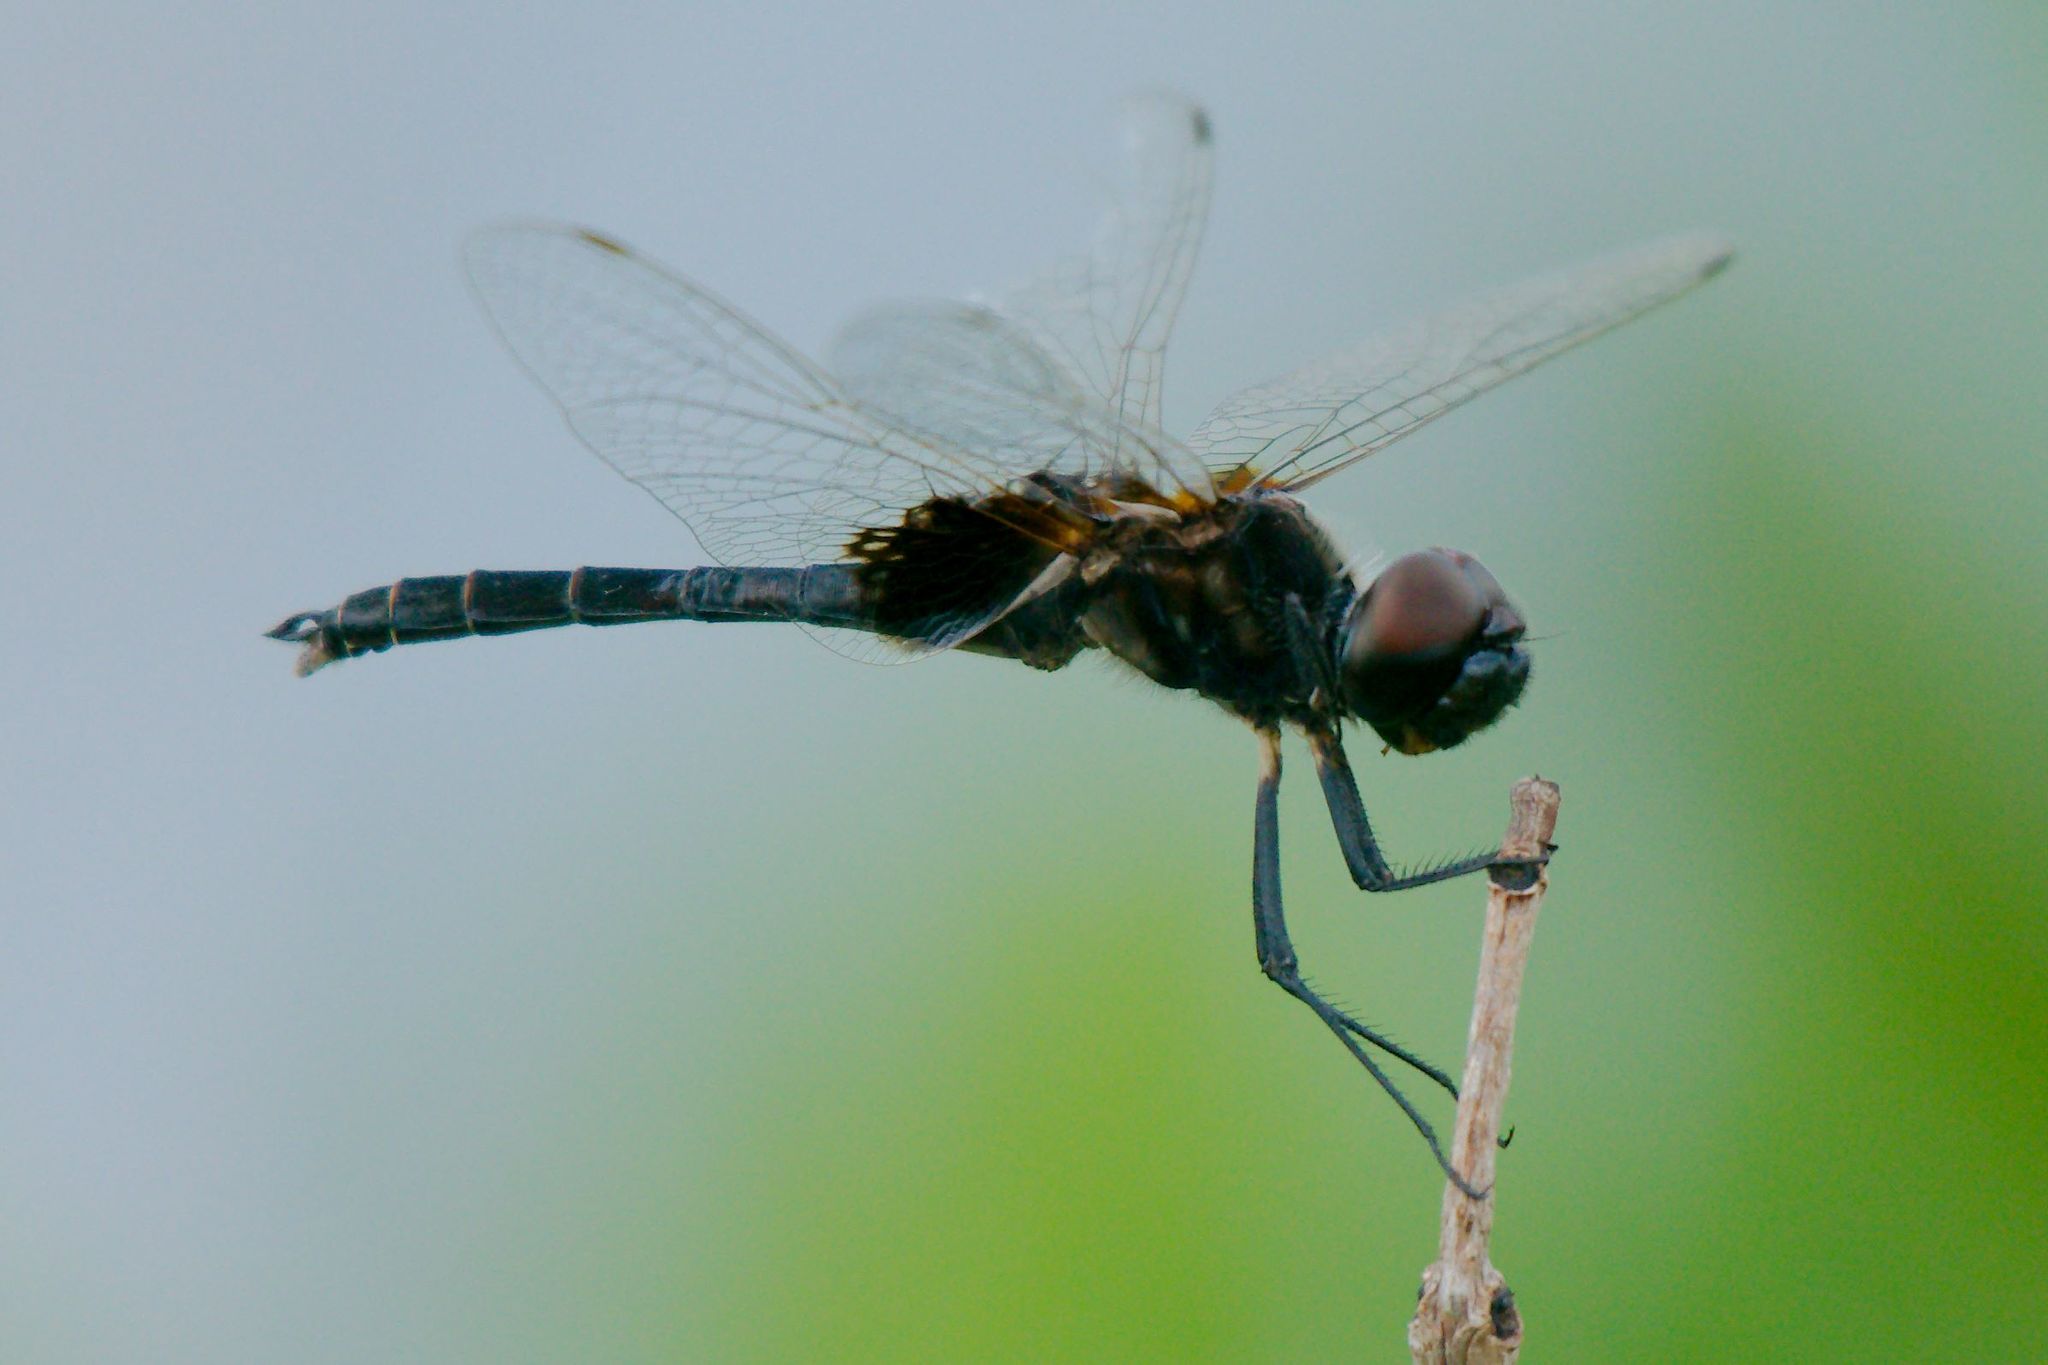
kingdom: Animalia
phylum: Arthropoda
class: Insecta
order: Odonata
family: Libellulidae
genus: Macrodiplax
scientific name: Macrodiplax balteata
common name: Marl pennant
